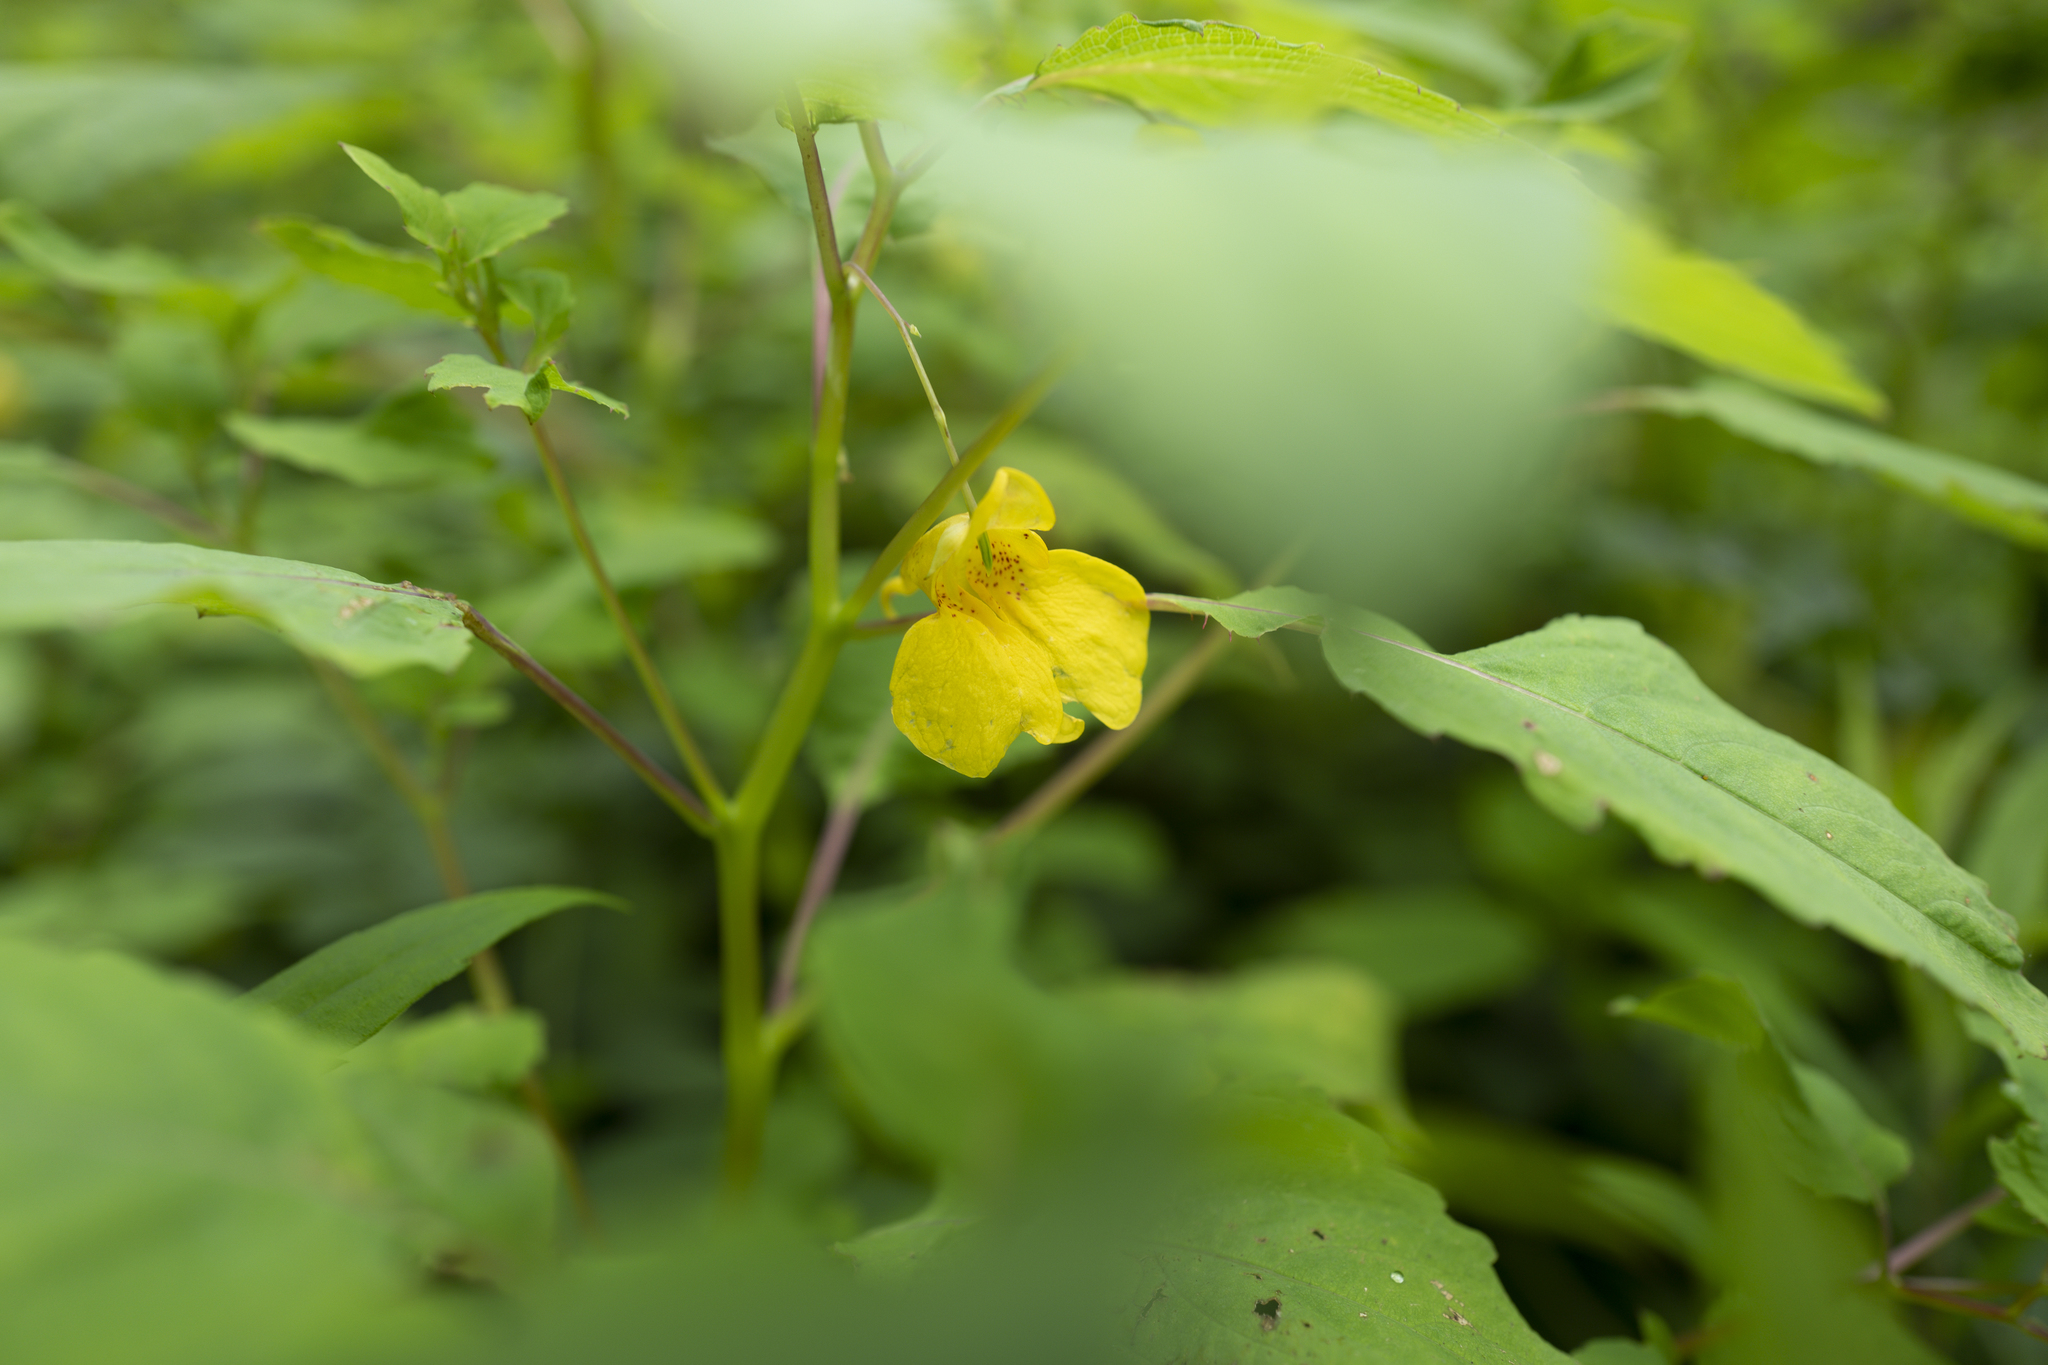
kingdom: Plantae
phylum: Tracheophyta
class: Magnoliopsida
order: Ericales
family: Balsaminaceae
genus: Impatiens
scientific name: Impatiens noli-tangere
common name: Touch-me-not balsam
